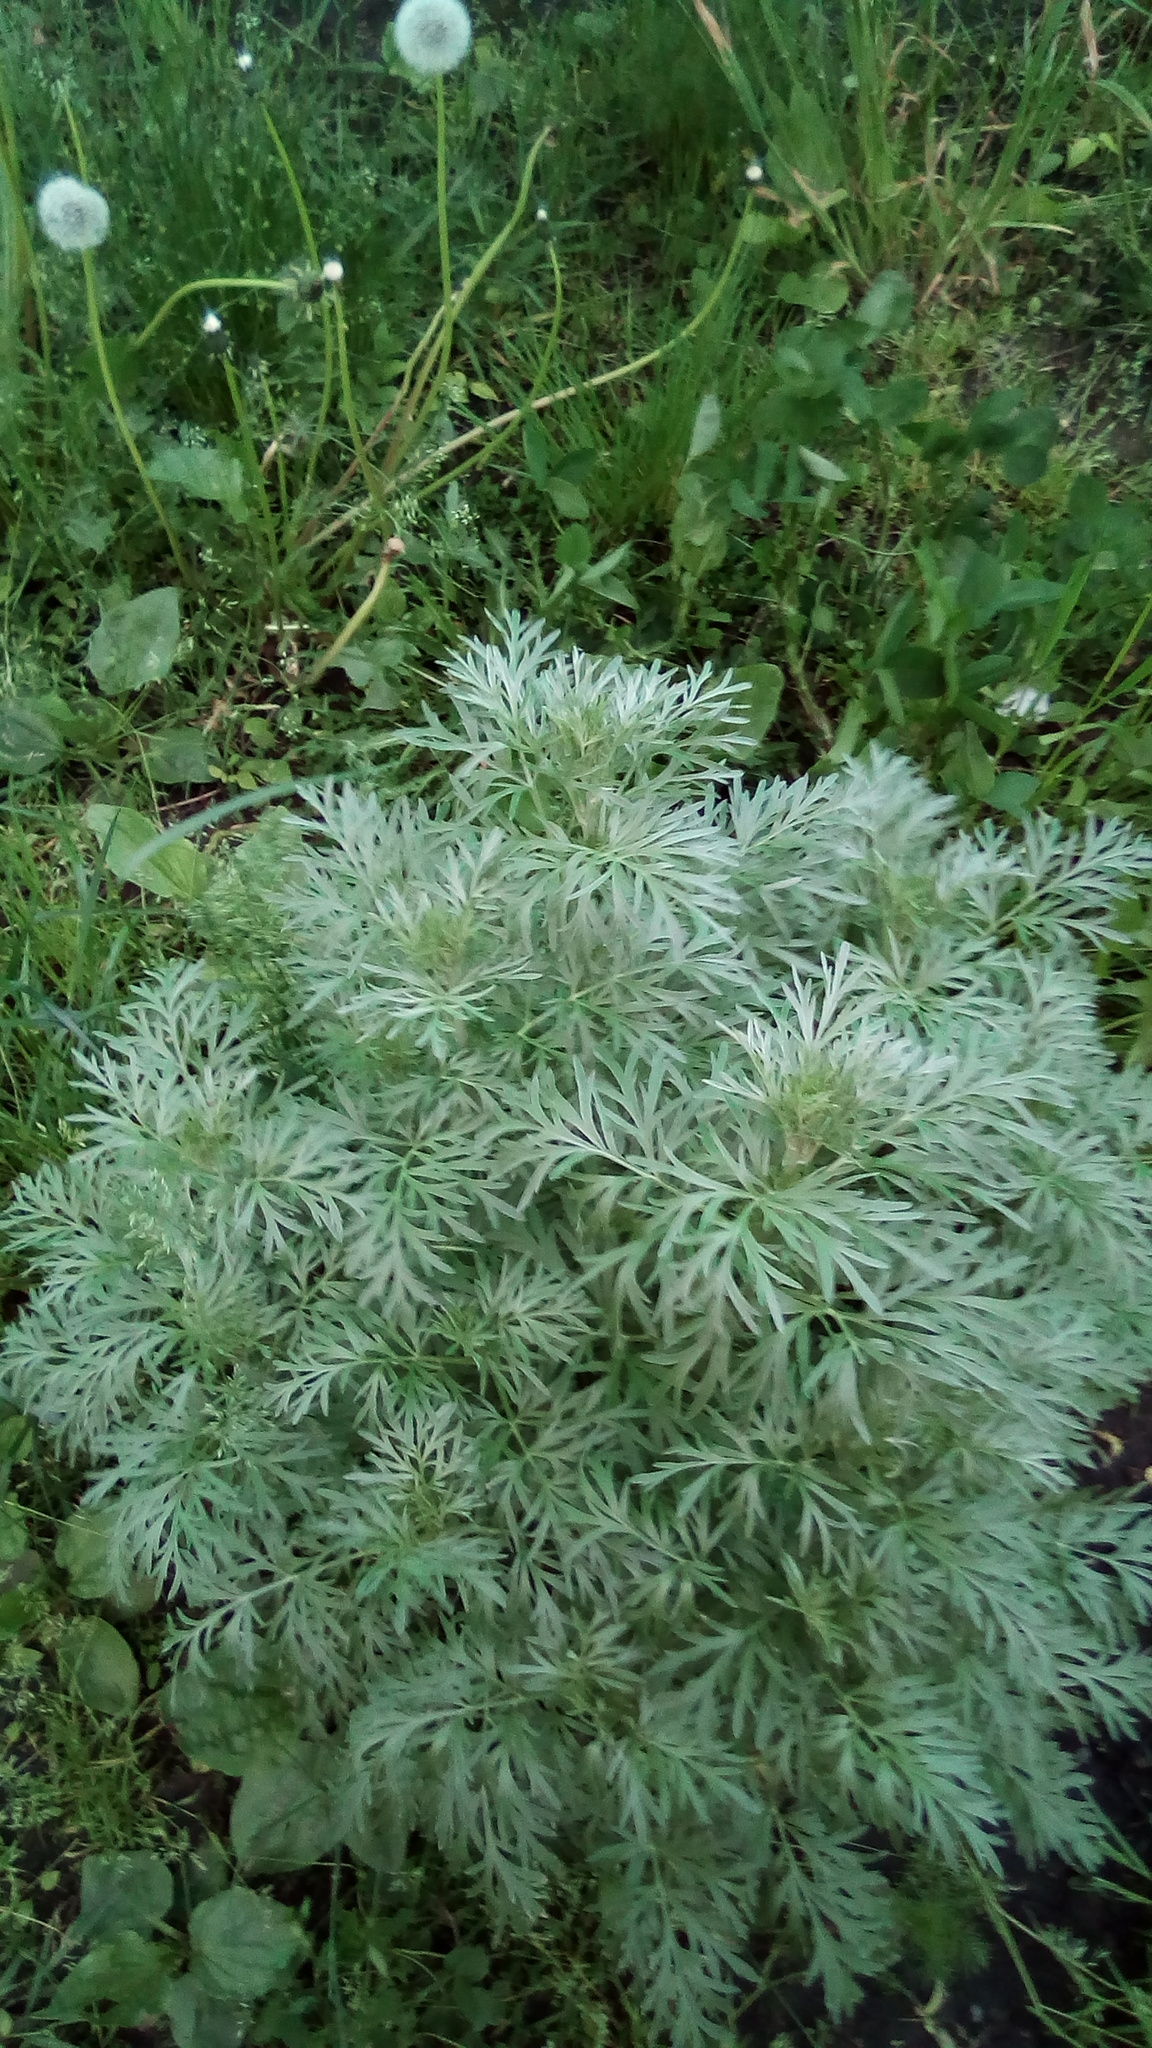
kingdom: Plantae
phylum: Tracheophyta
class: Magnoliopsida
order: Asterales
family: Asteraceae
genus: Artemisia
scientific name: Artemisia absinthium
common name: Wormwood
